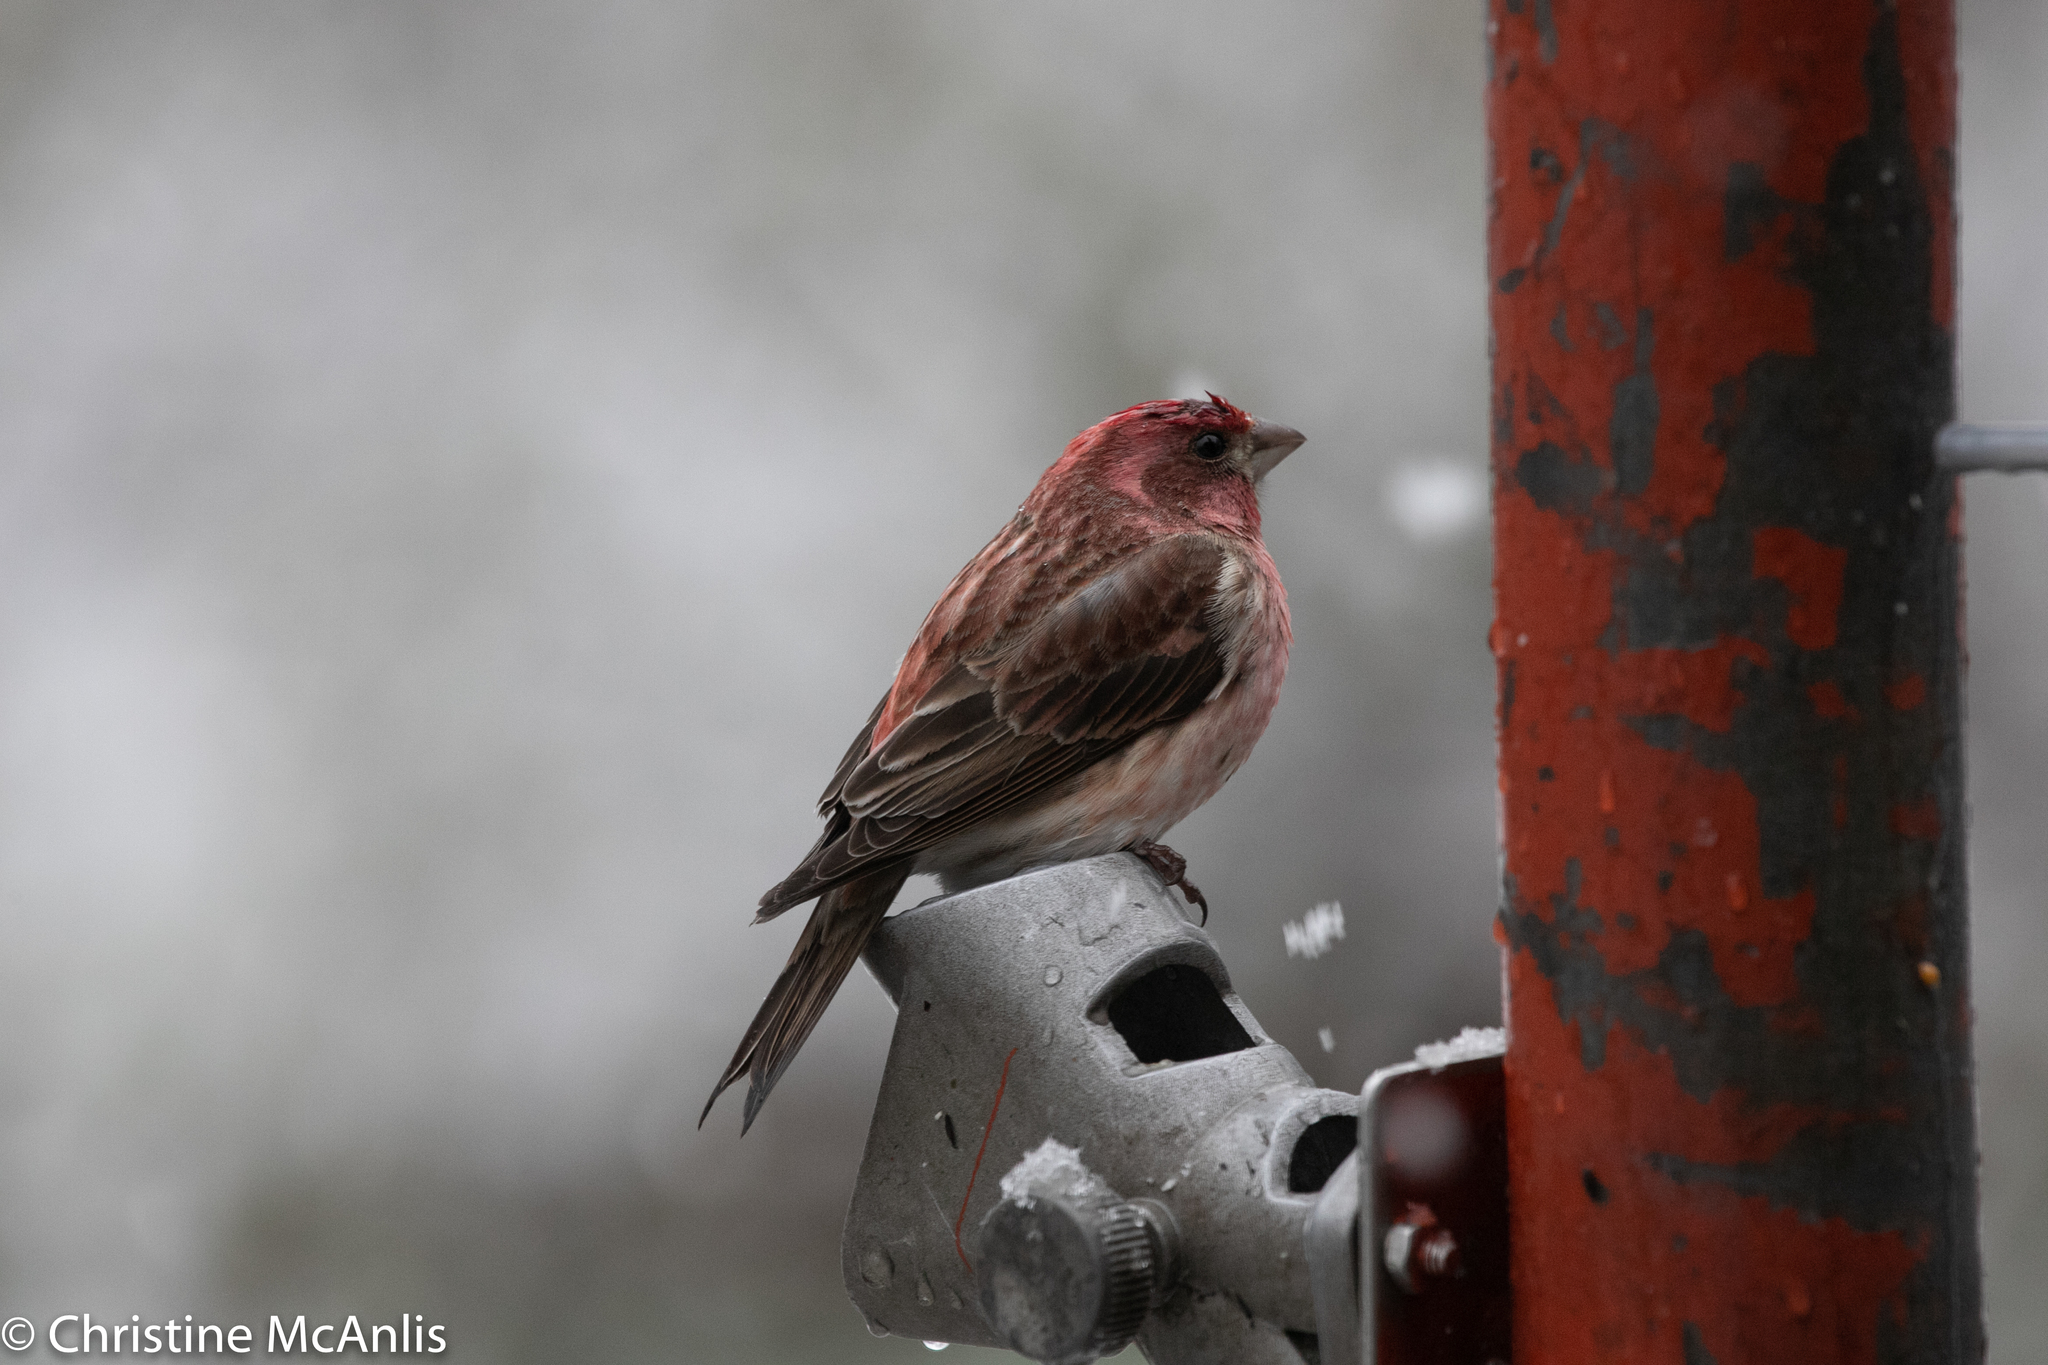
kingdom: Animalia
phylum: Chordata
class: Aves
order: Passeriformes
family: Fringillidae
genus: Haemorhous
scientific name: Haemorhous purpureus
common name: Purple finch
